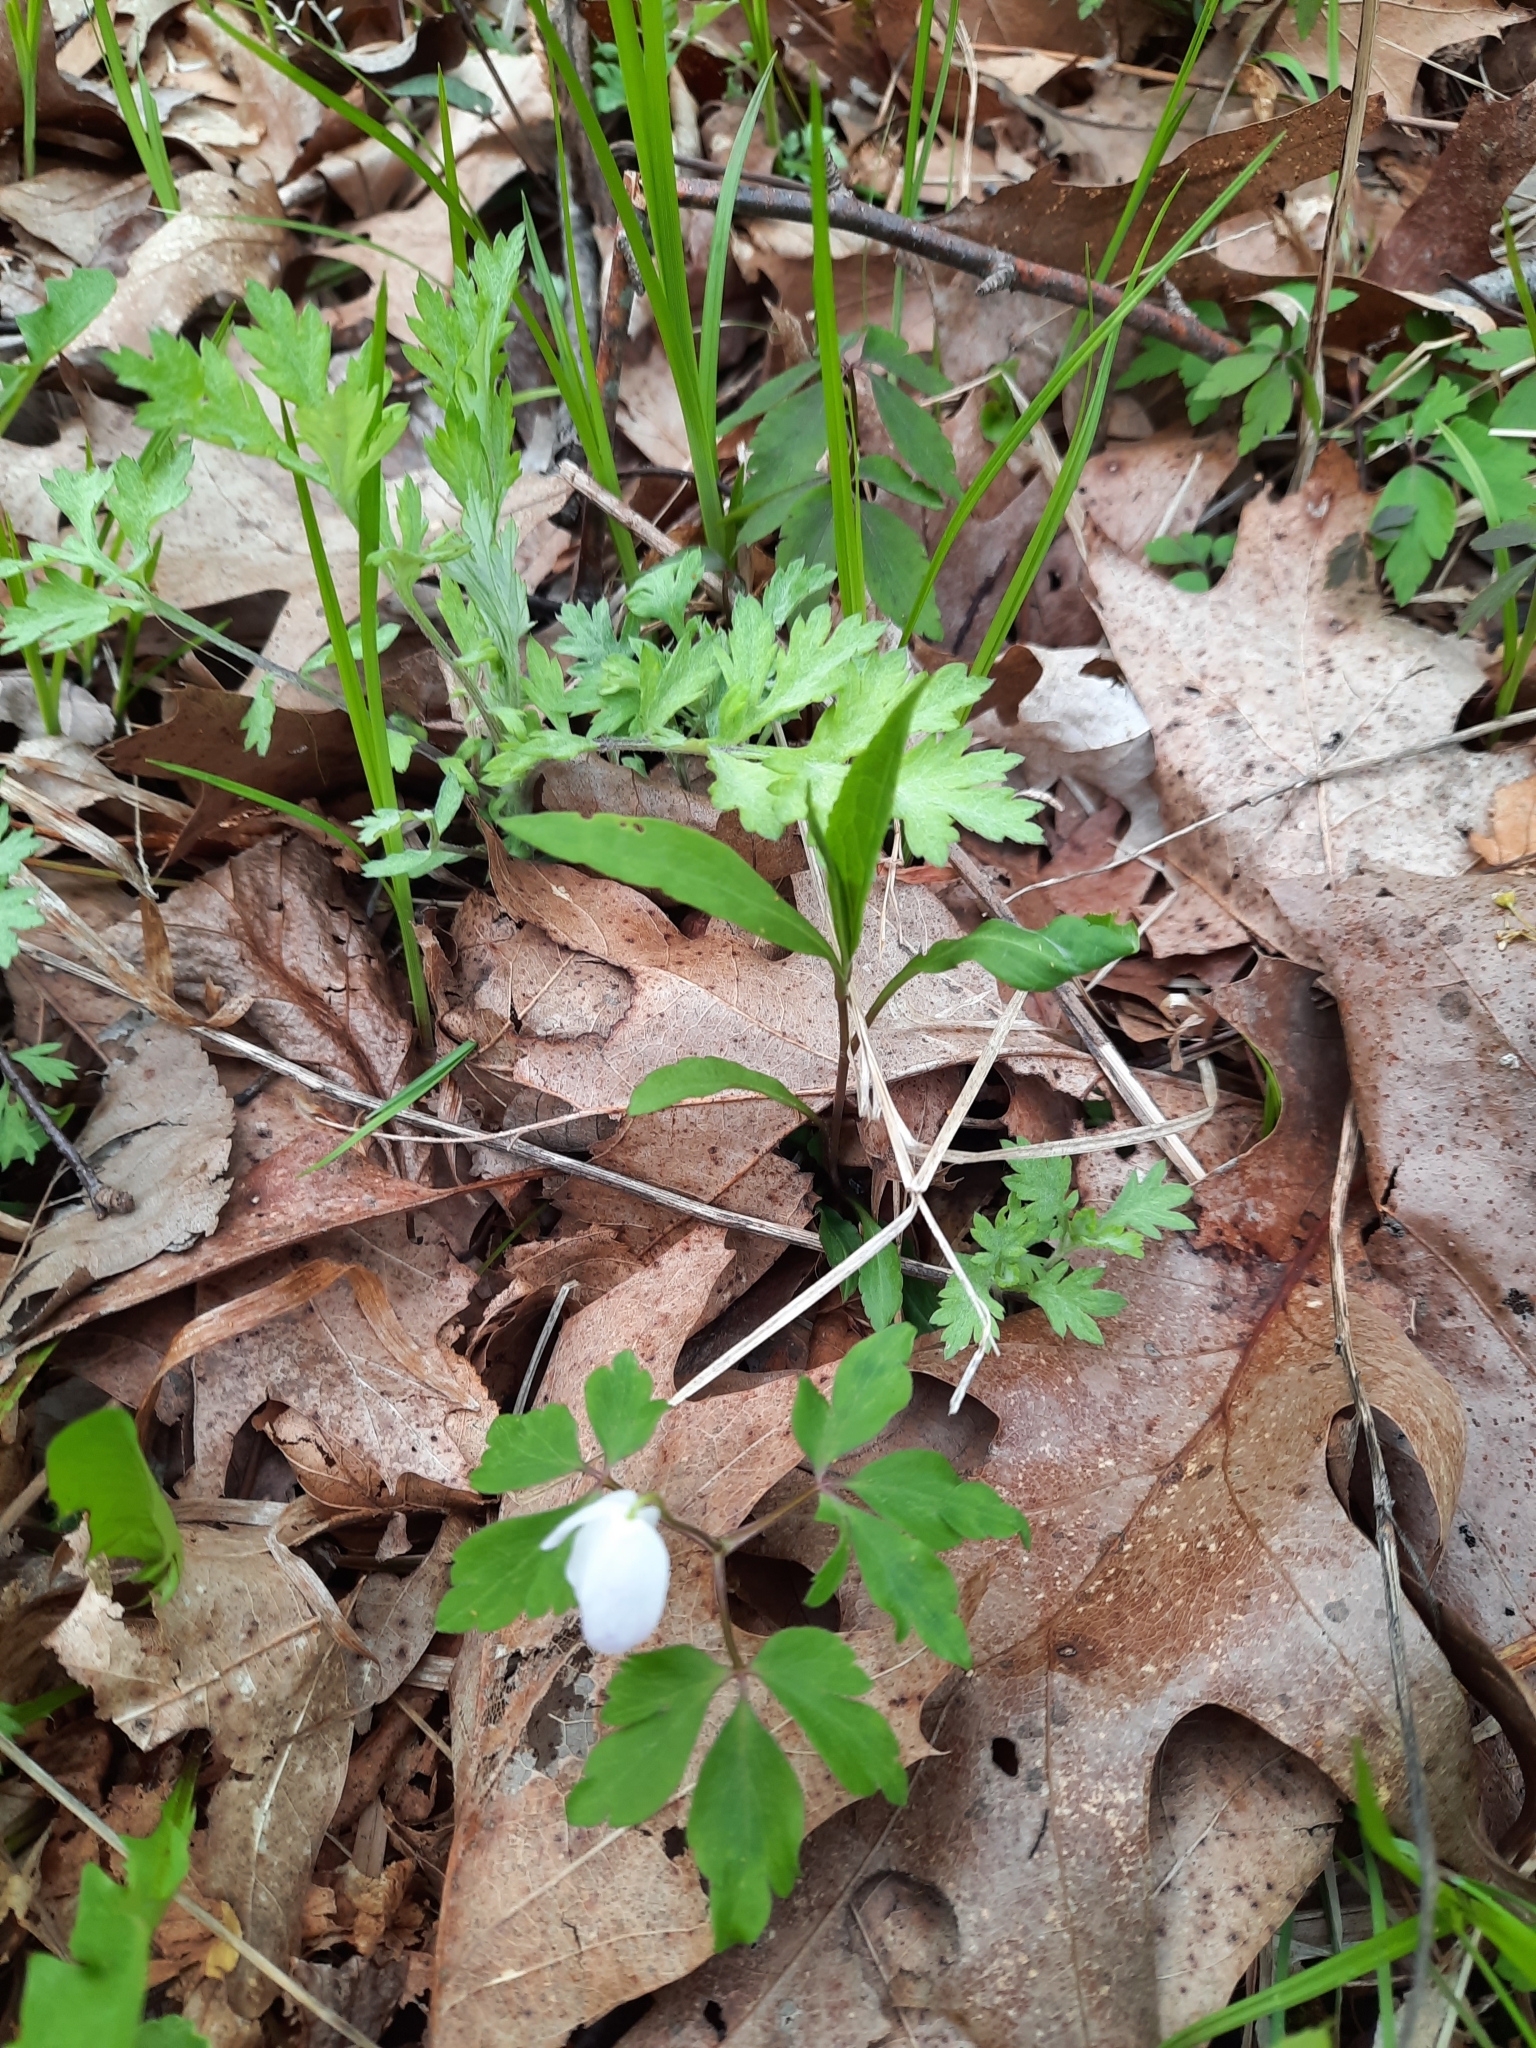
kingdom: Plantae
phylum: Tracheophyta
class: Magnoliopsida
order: Ranunculales
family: Ranunculaceae
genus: Anemone
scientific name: Anemone quinquefolia
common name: Wood anemone
